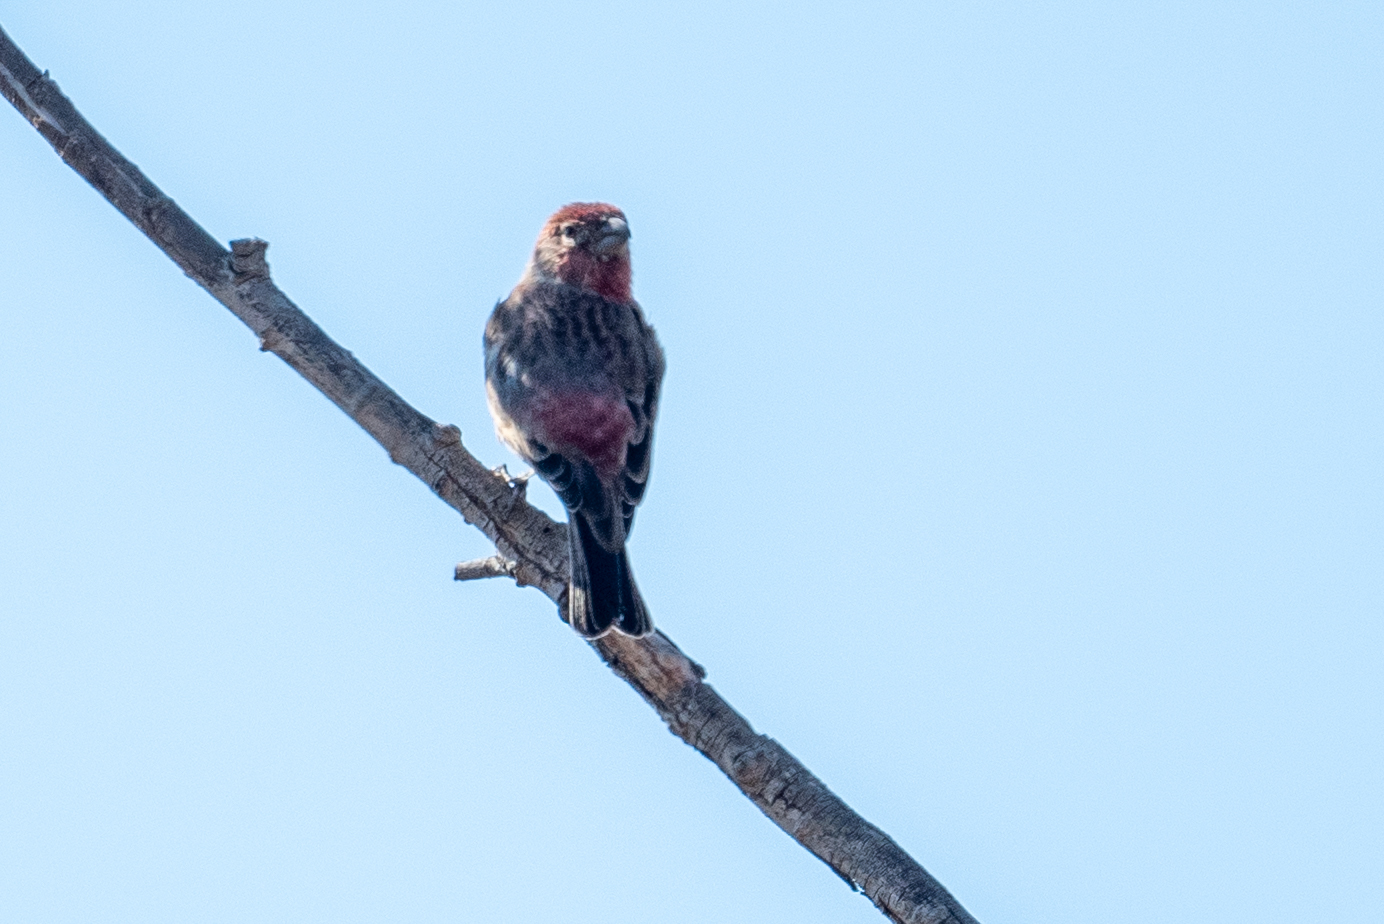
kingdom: Animalia
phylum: Chordata
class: Aves
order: Passeriformes
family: Fringillidae
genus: Haemorhous
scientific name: Haemorhous mexicanus
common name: House finch
